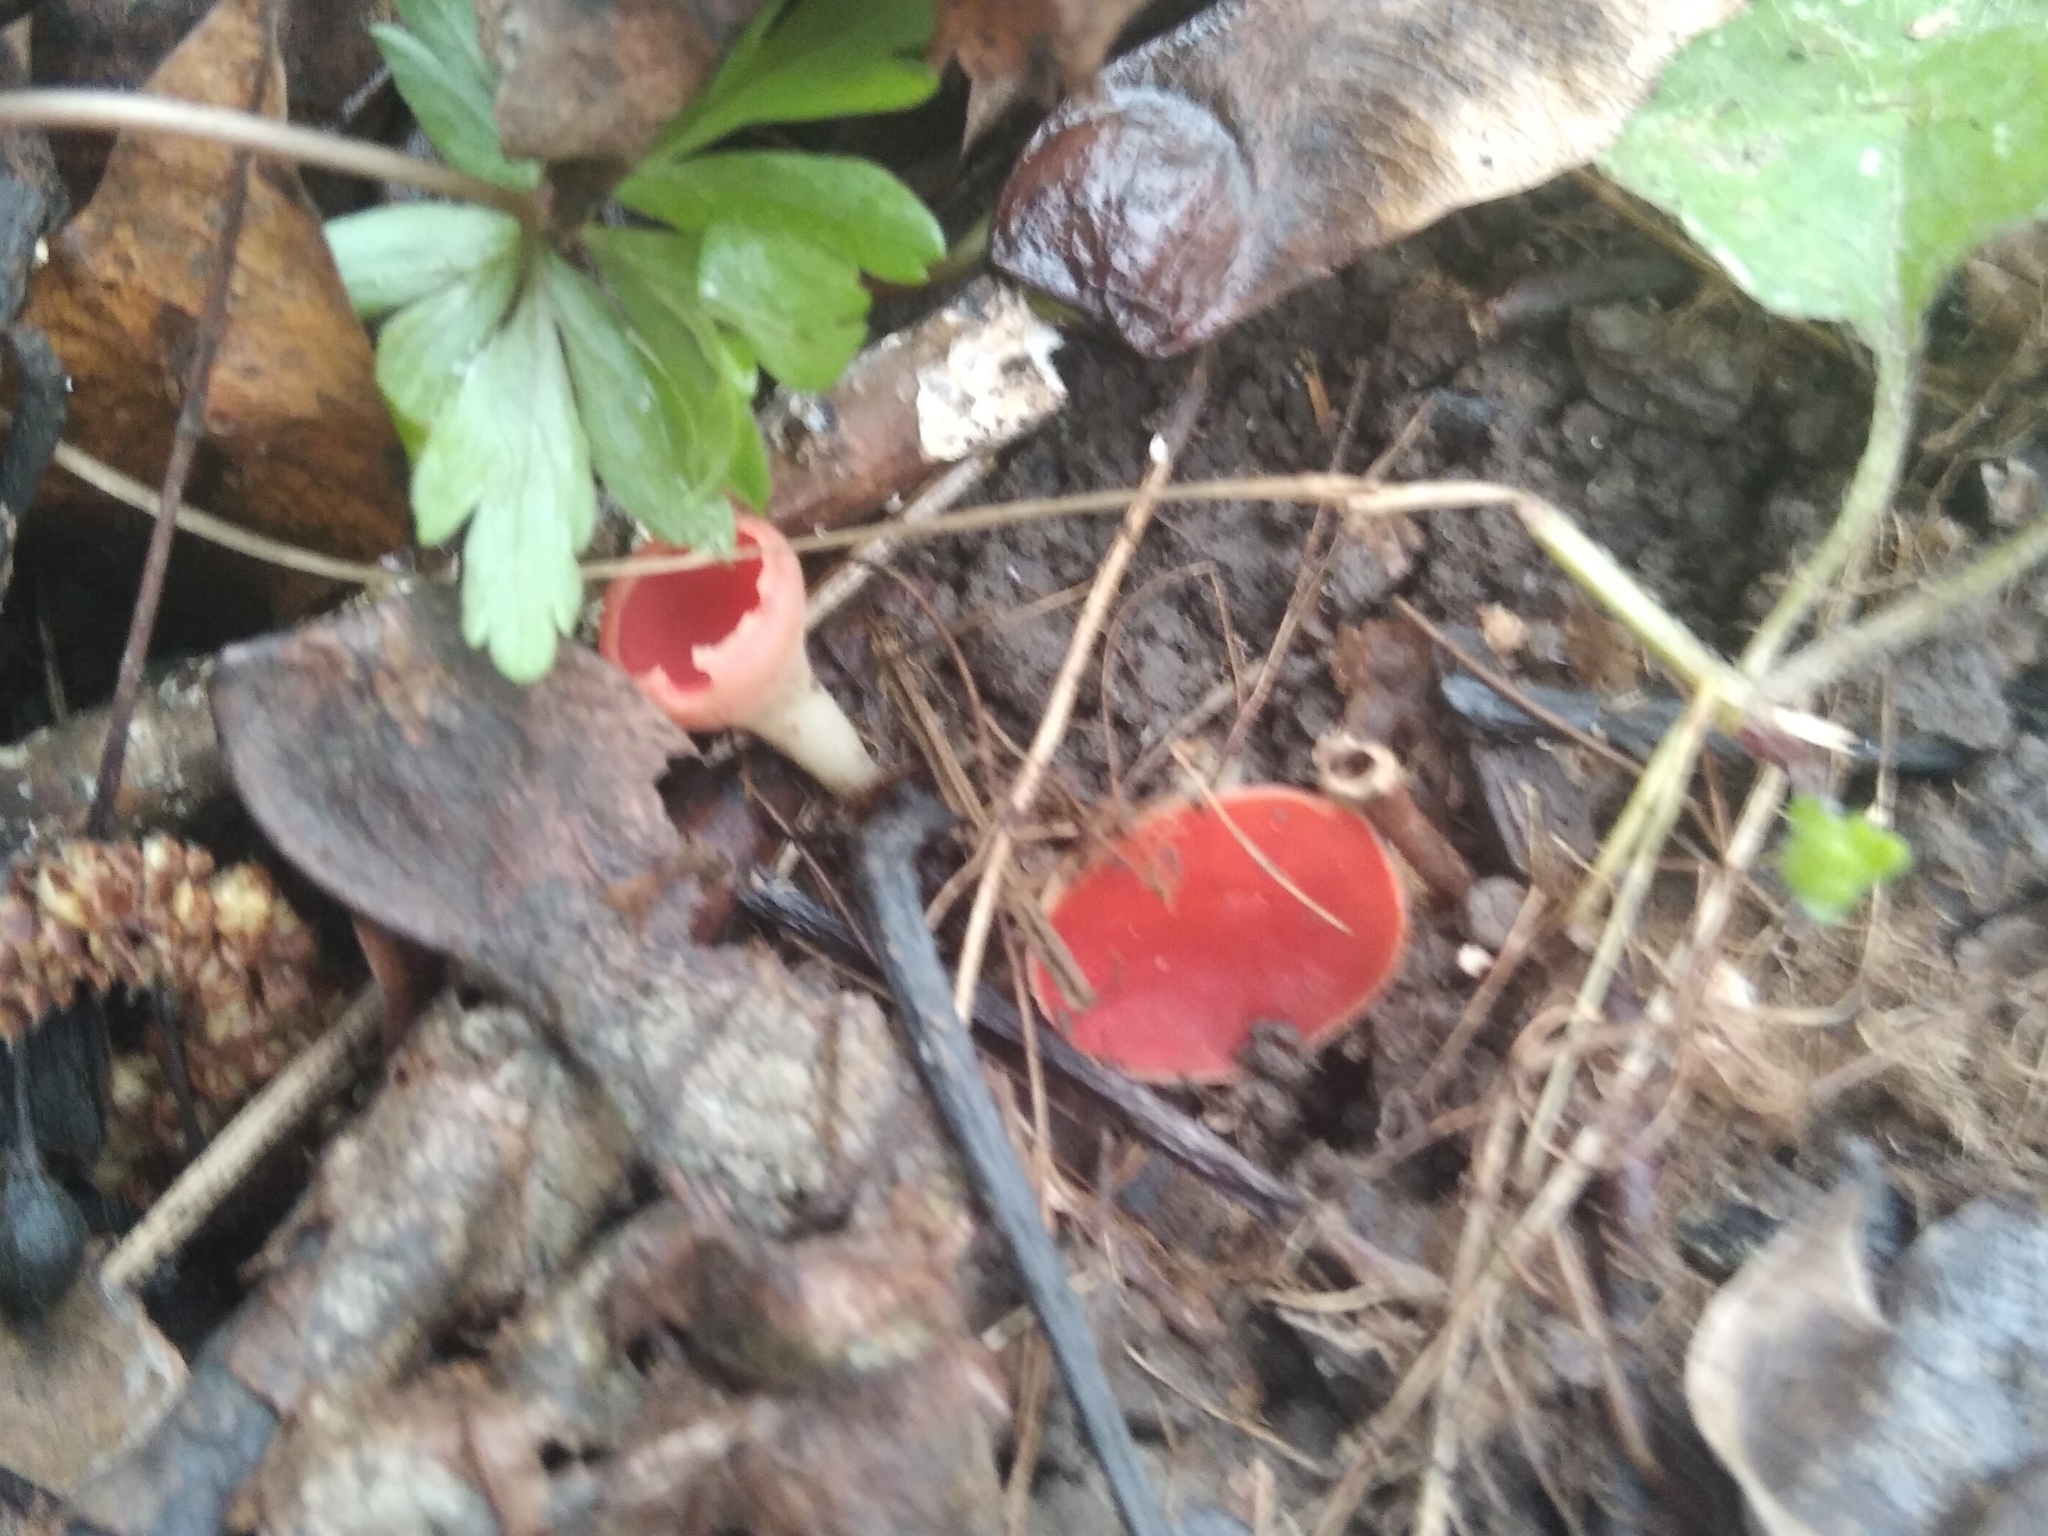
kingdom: Fungi
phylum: Ascomycota
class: Pezizomycetes
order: Pezizales
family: Sarcoscyphaceae
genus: Sarcoscypha
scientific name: Sarcoscypha austriaca
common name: Scarlet elfcup
